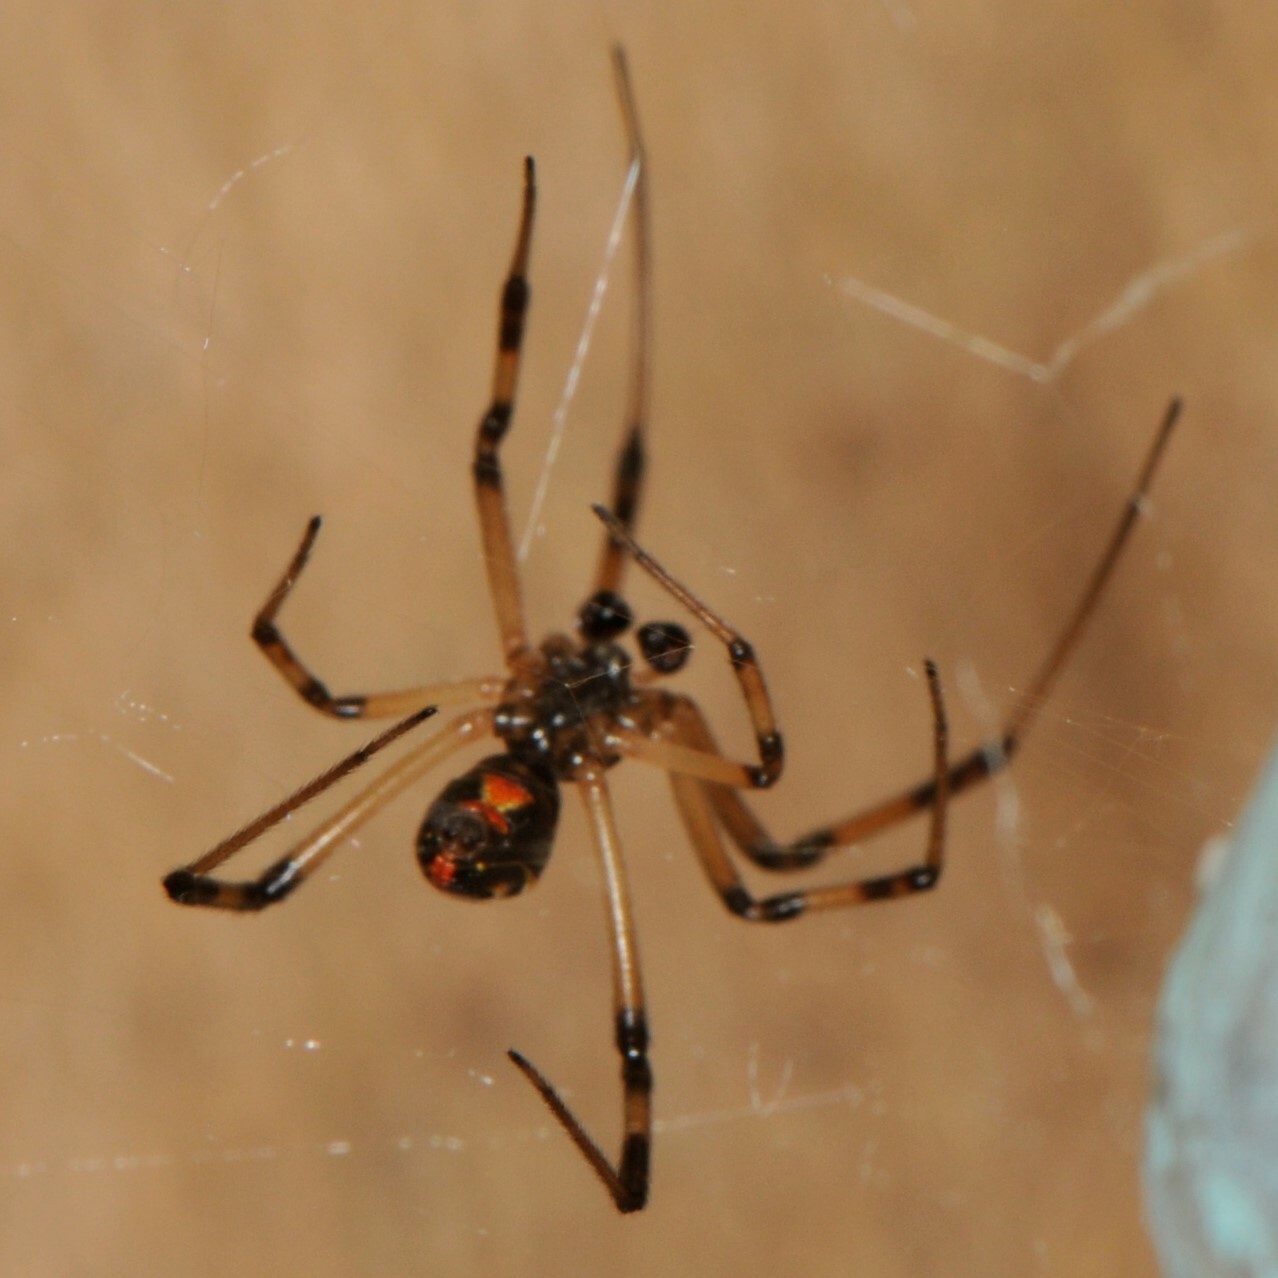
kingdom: Animalia
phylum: Arthropoda
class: Arachnida
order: Araneae
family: Theridiidae
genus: Latrodectus
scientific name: Latrodectus hesperus
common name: Western black widow
